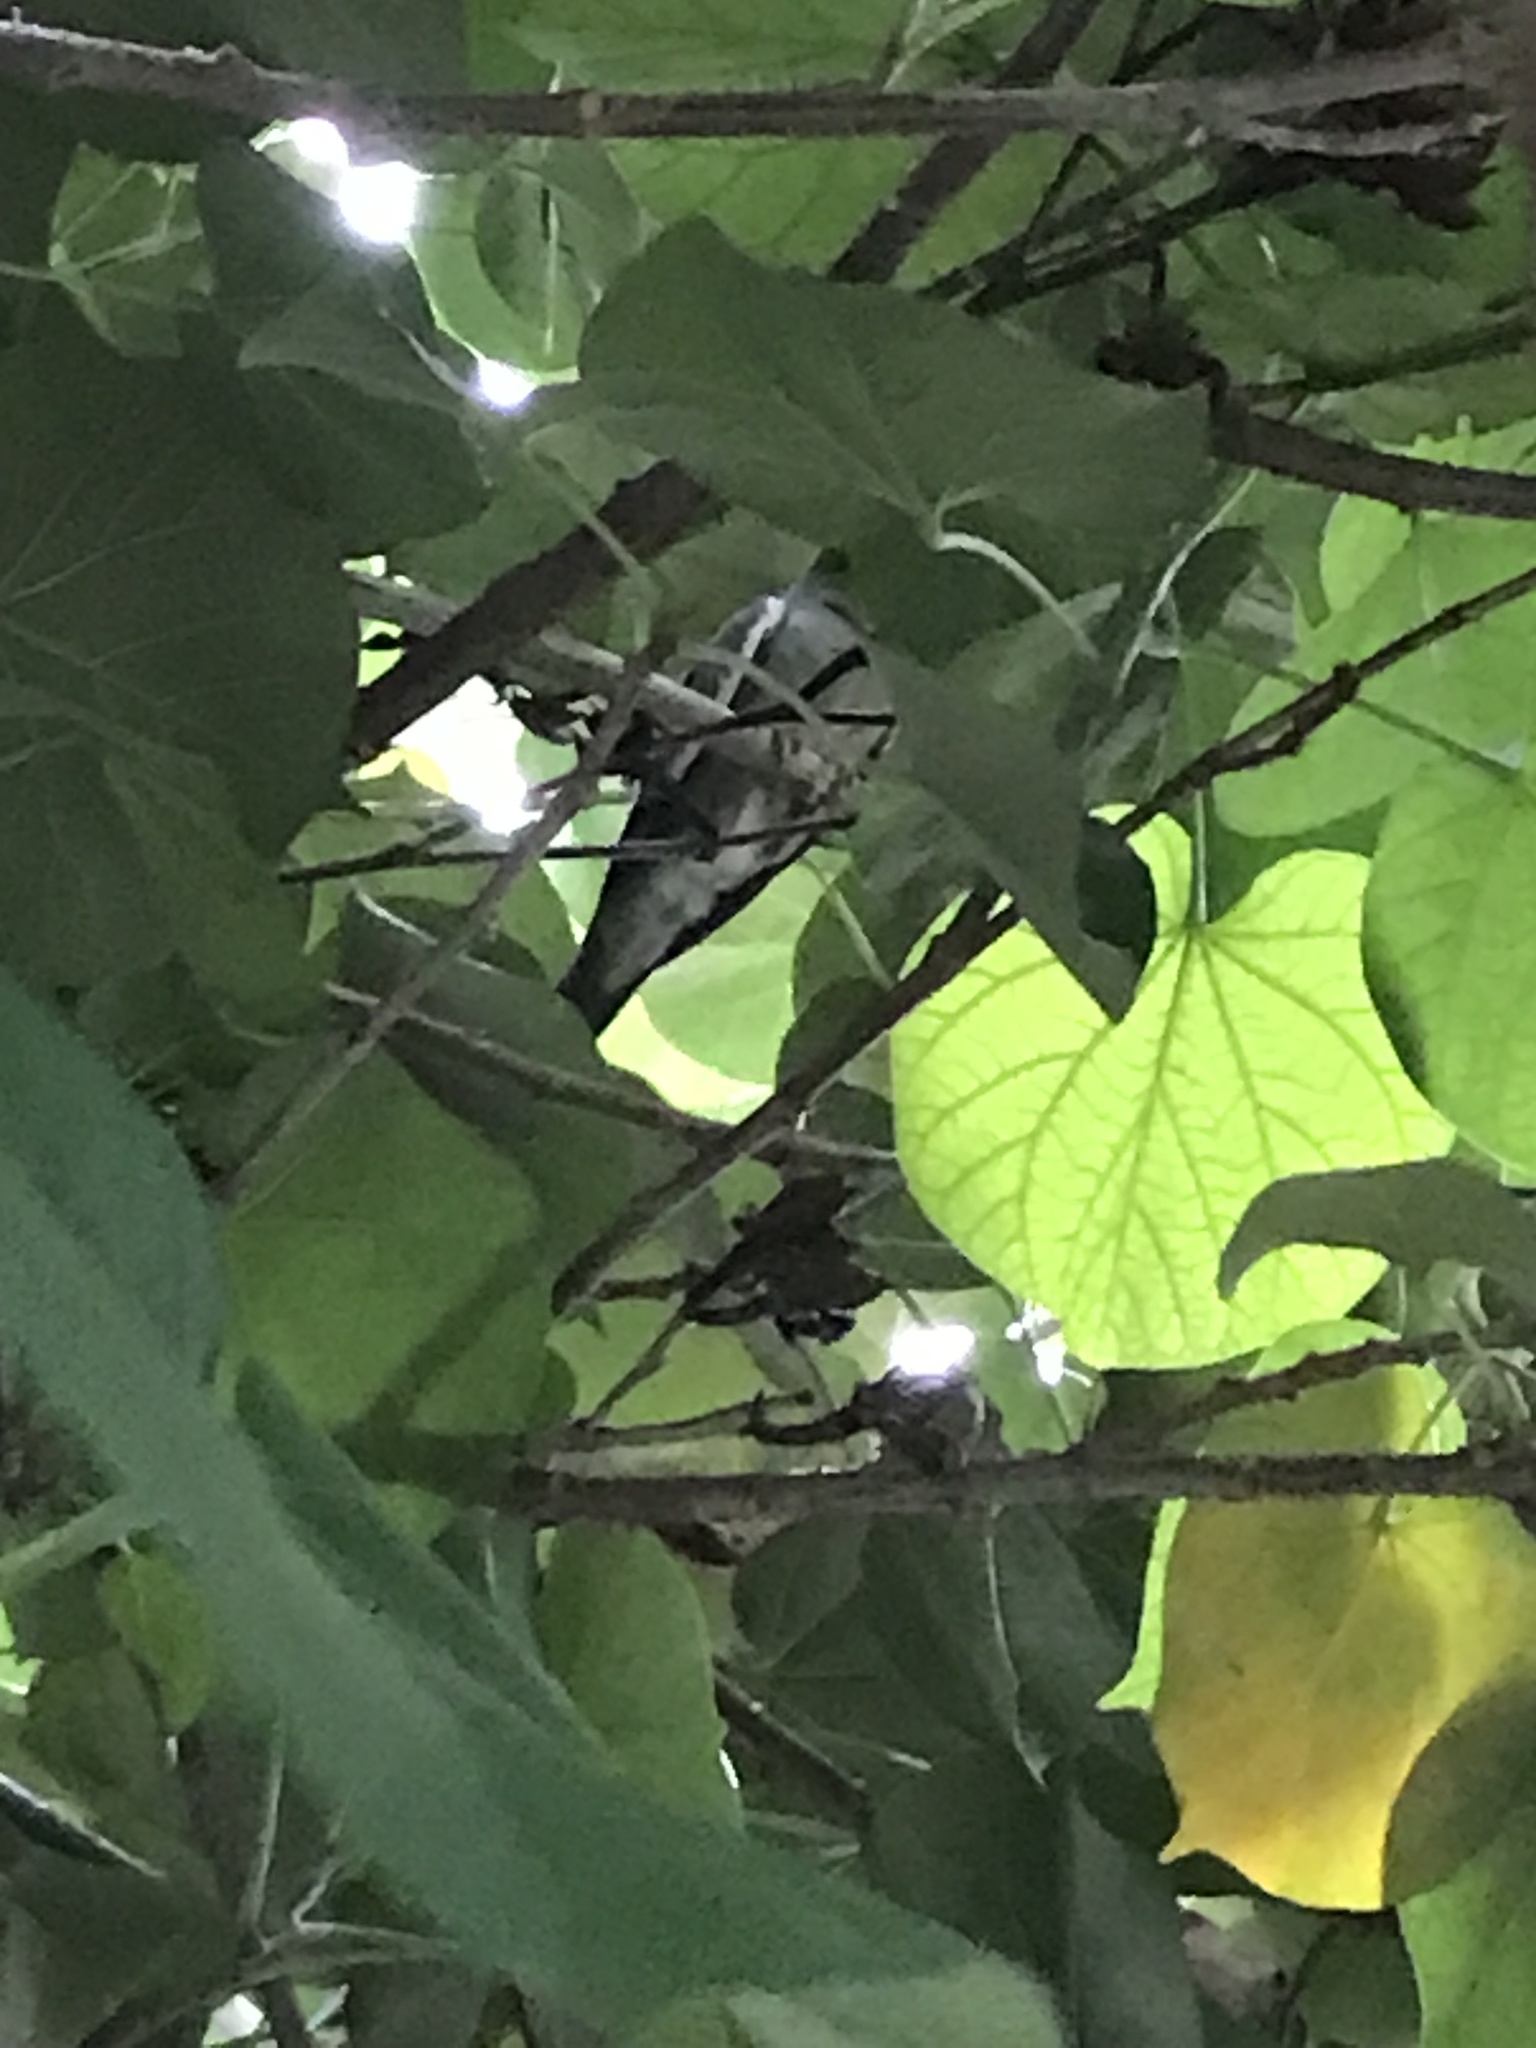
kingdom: Animalia
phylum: Chordata
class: Aves
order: Columbiformes
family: Columbidae
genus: Zenaida
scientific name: Zenaida asiatica
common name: White-winged dove
